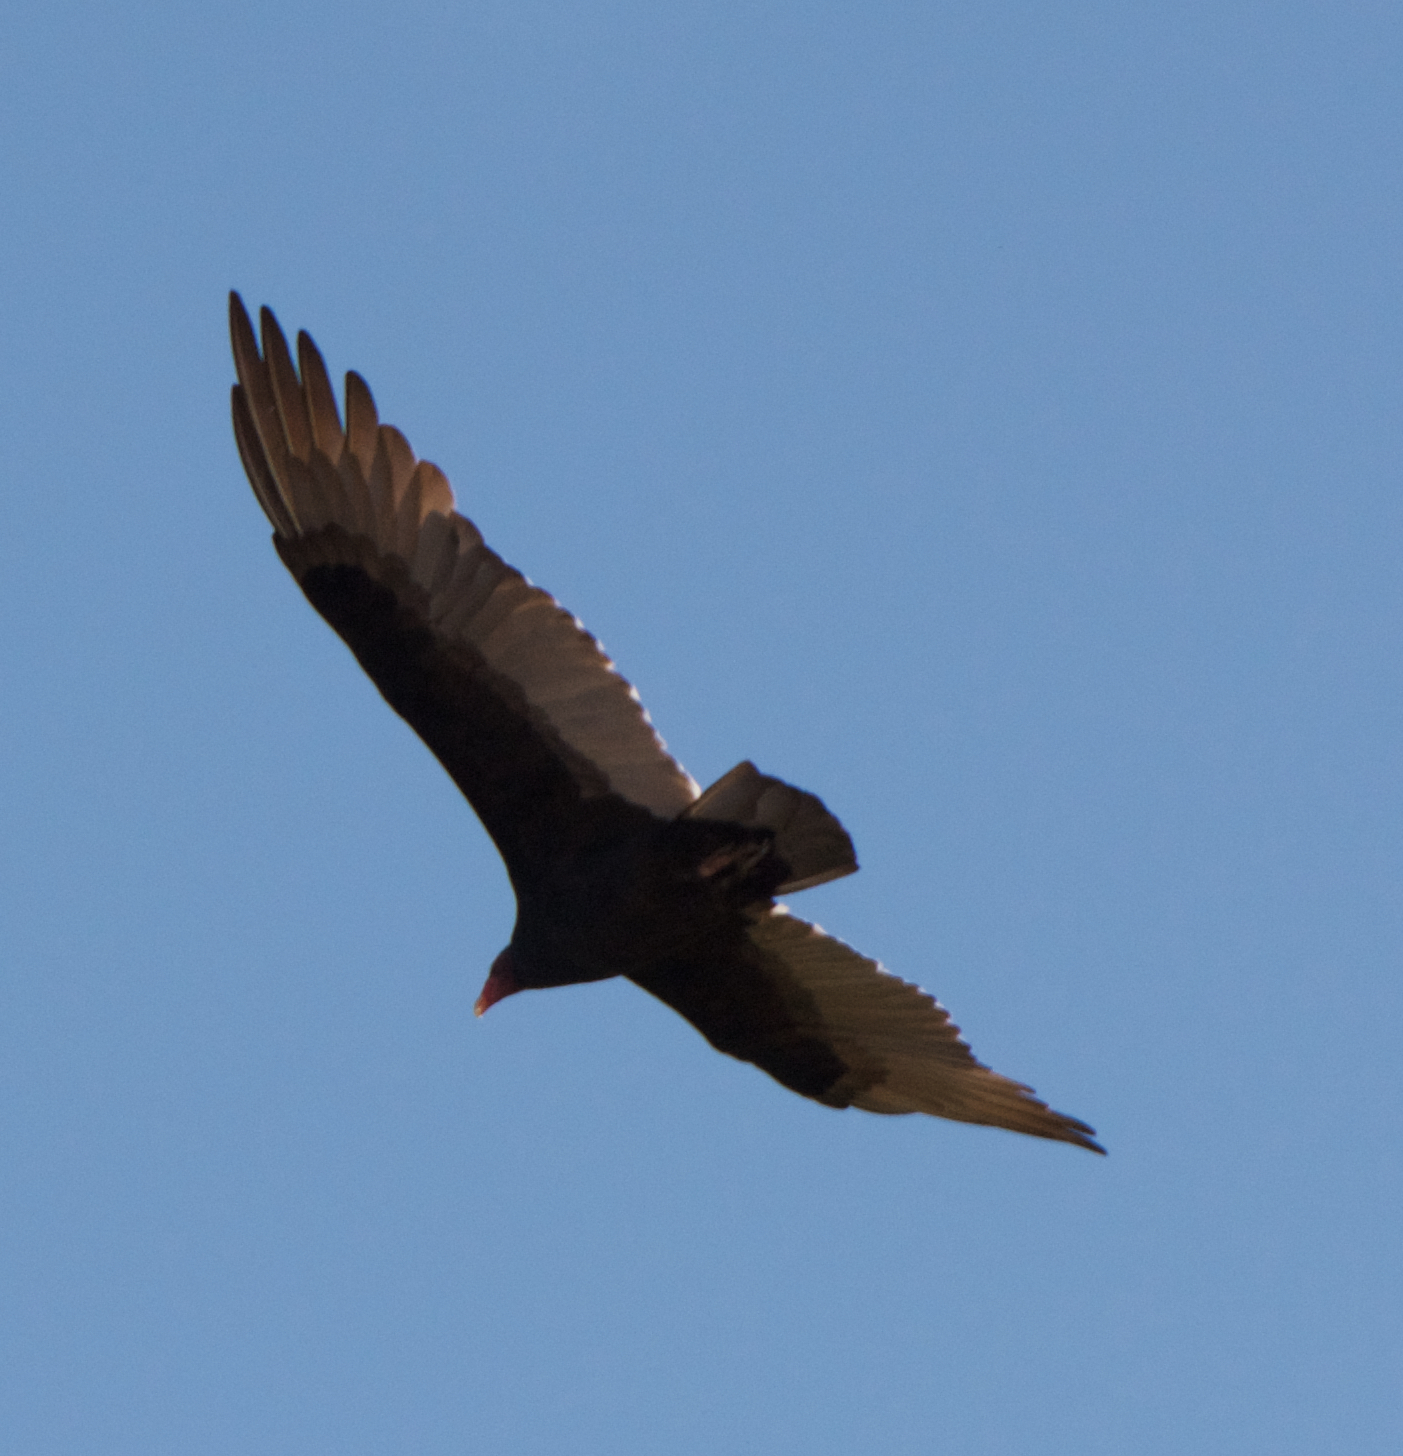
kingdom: Animalia
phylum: Chordata
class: Aves
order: Accipitriformes
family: Cathartidae
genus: Cathartes
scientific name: Cathartes aura
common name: Turkey vulture
